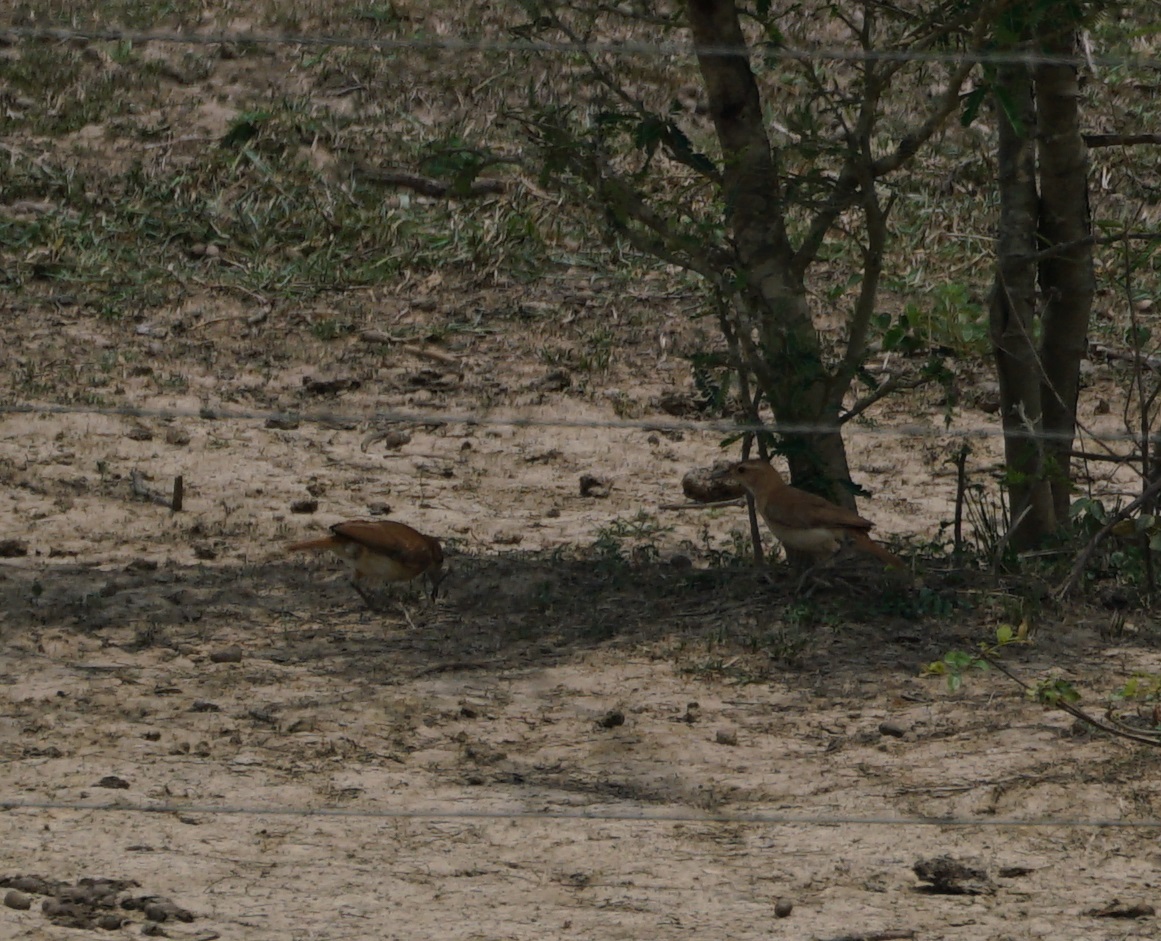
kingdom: Animalia
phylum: Chordata
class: Aves
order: Passeriformes
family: Furnariidae
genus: Furnarius
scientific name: Furnarius rufus
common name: Rufous hornero
